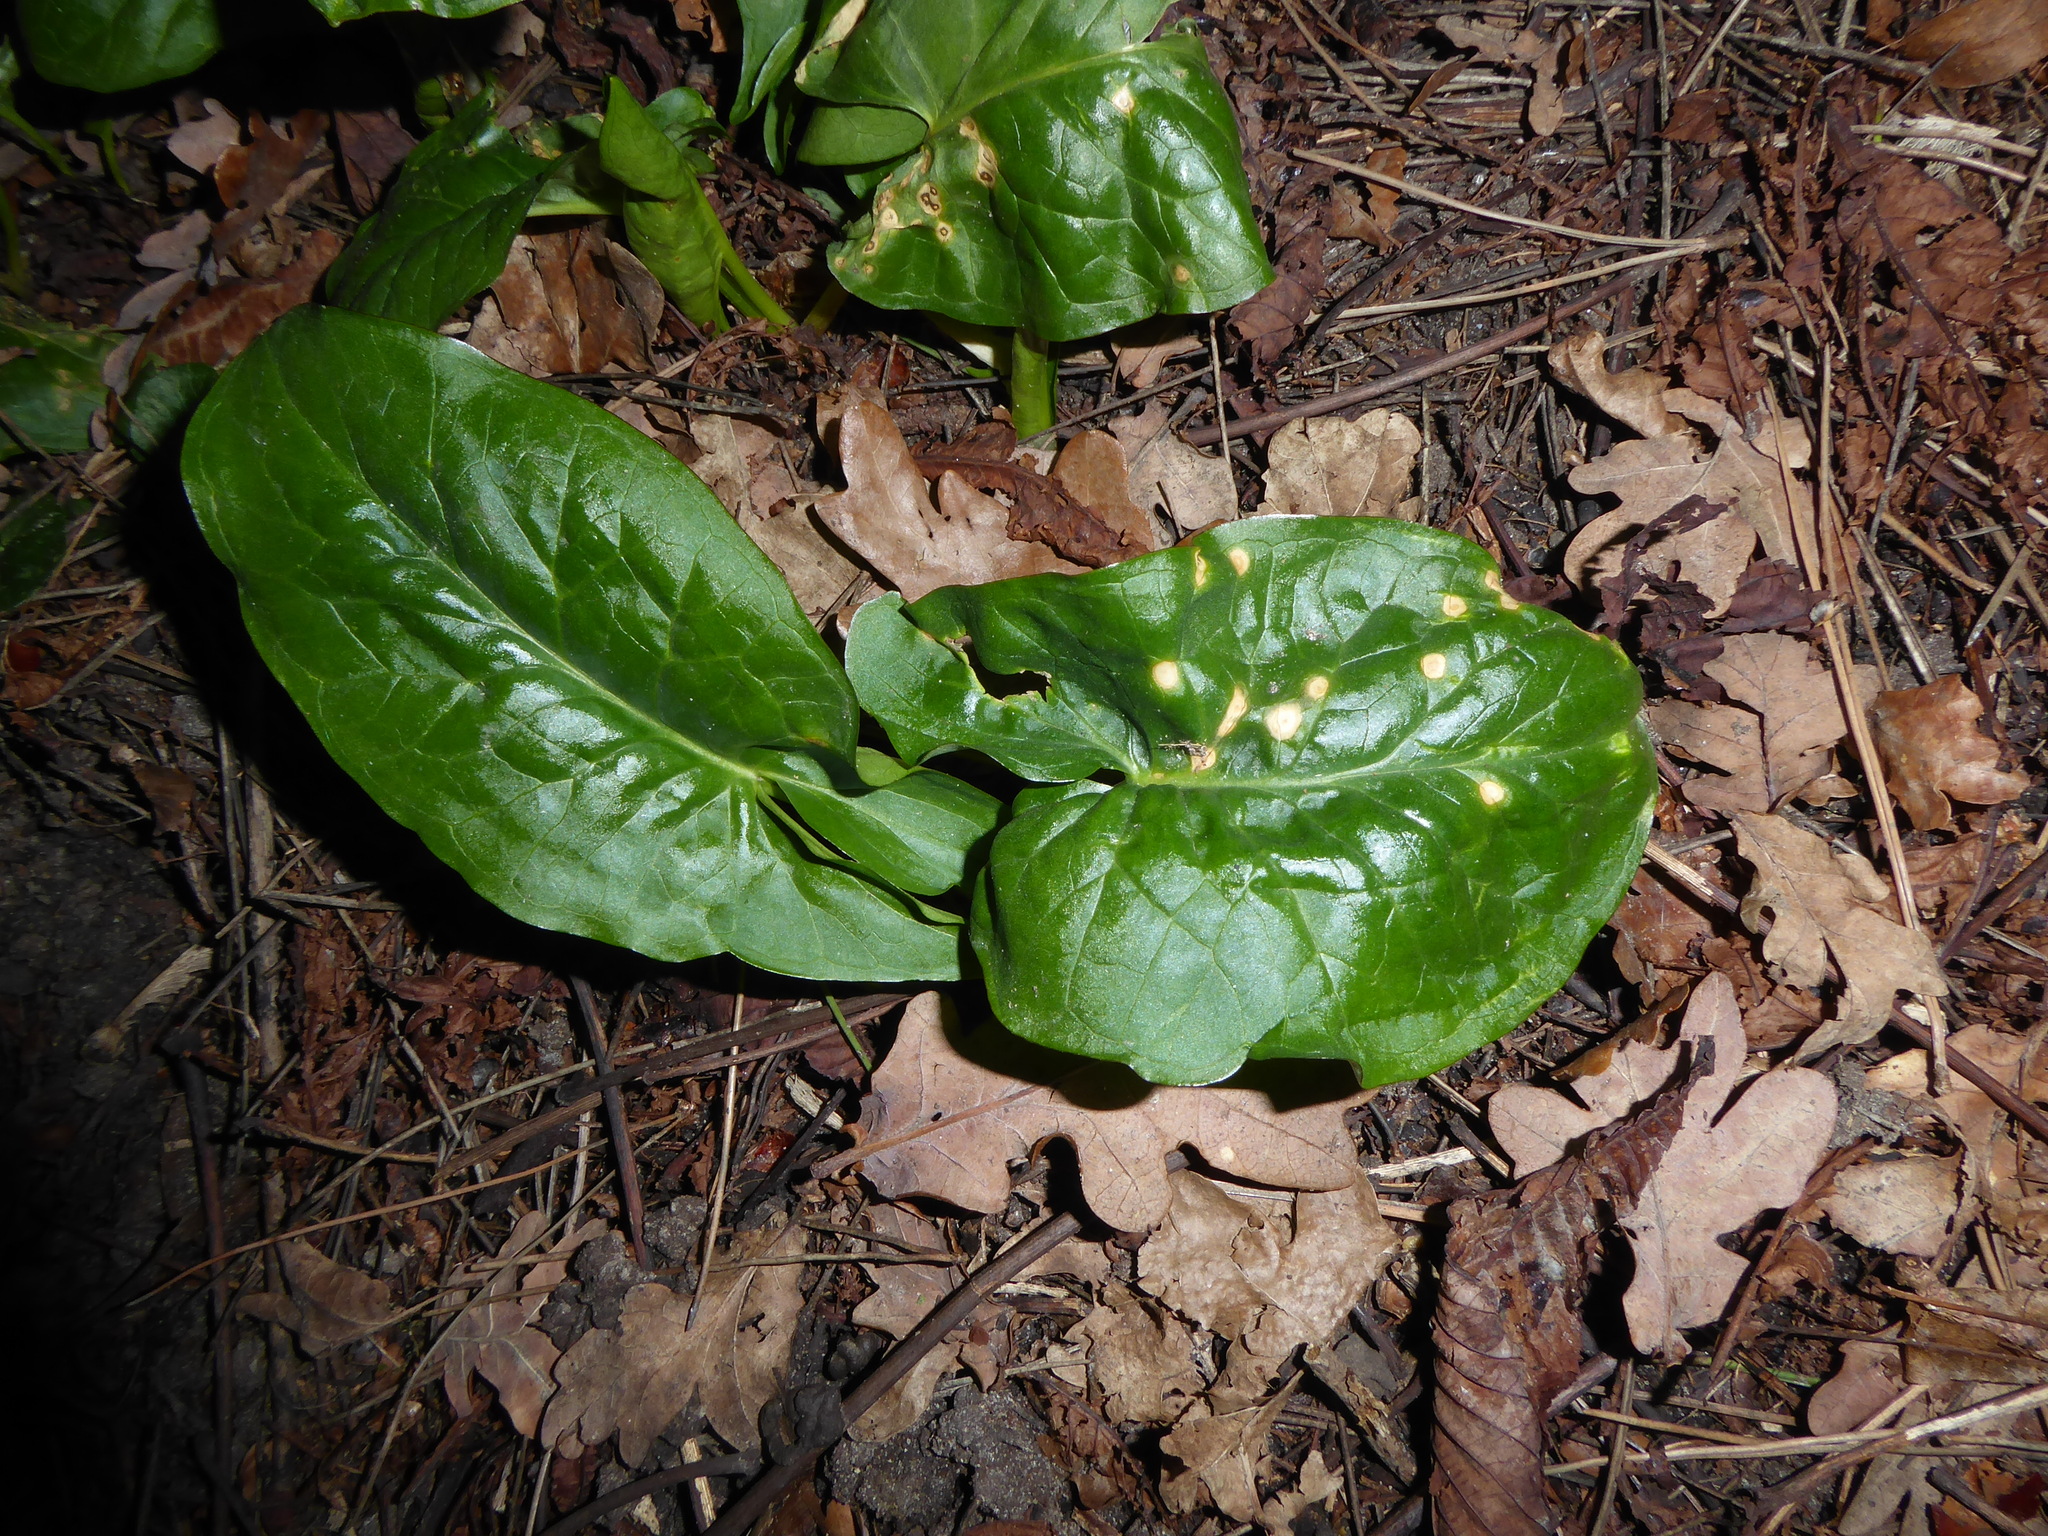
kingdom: Plantae
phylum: Tracheophyta
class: Liliopsida
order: Alismatales
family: Araceae
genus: Arum
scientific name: Arum maculatum
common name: Lords-and-ladies
